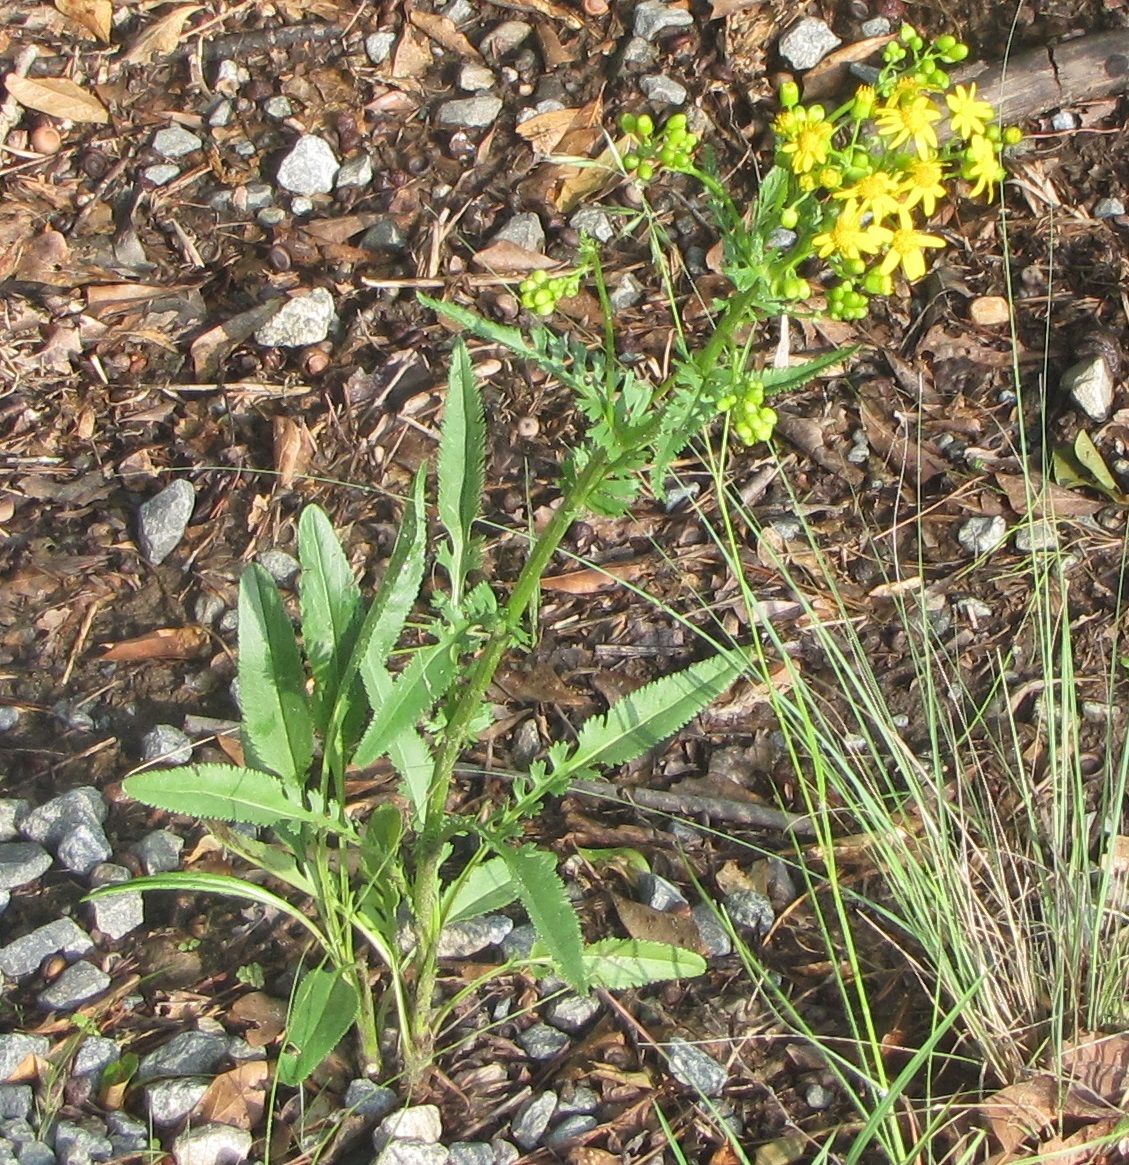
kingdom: Plantae
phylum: Tracheophyta
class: Magnoliopsida
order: Asterales
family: Asteraceae
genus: Packera
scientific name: Packera anonyma
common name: Small ragwort
